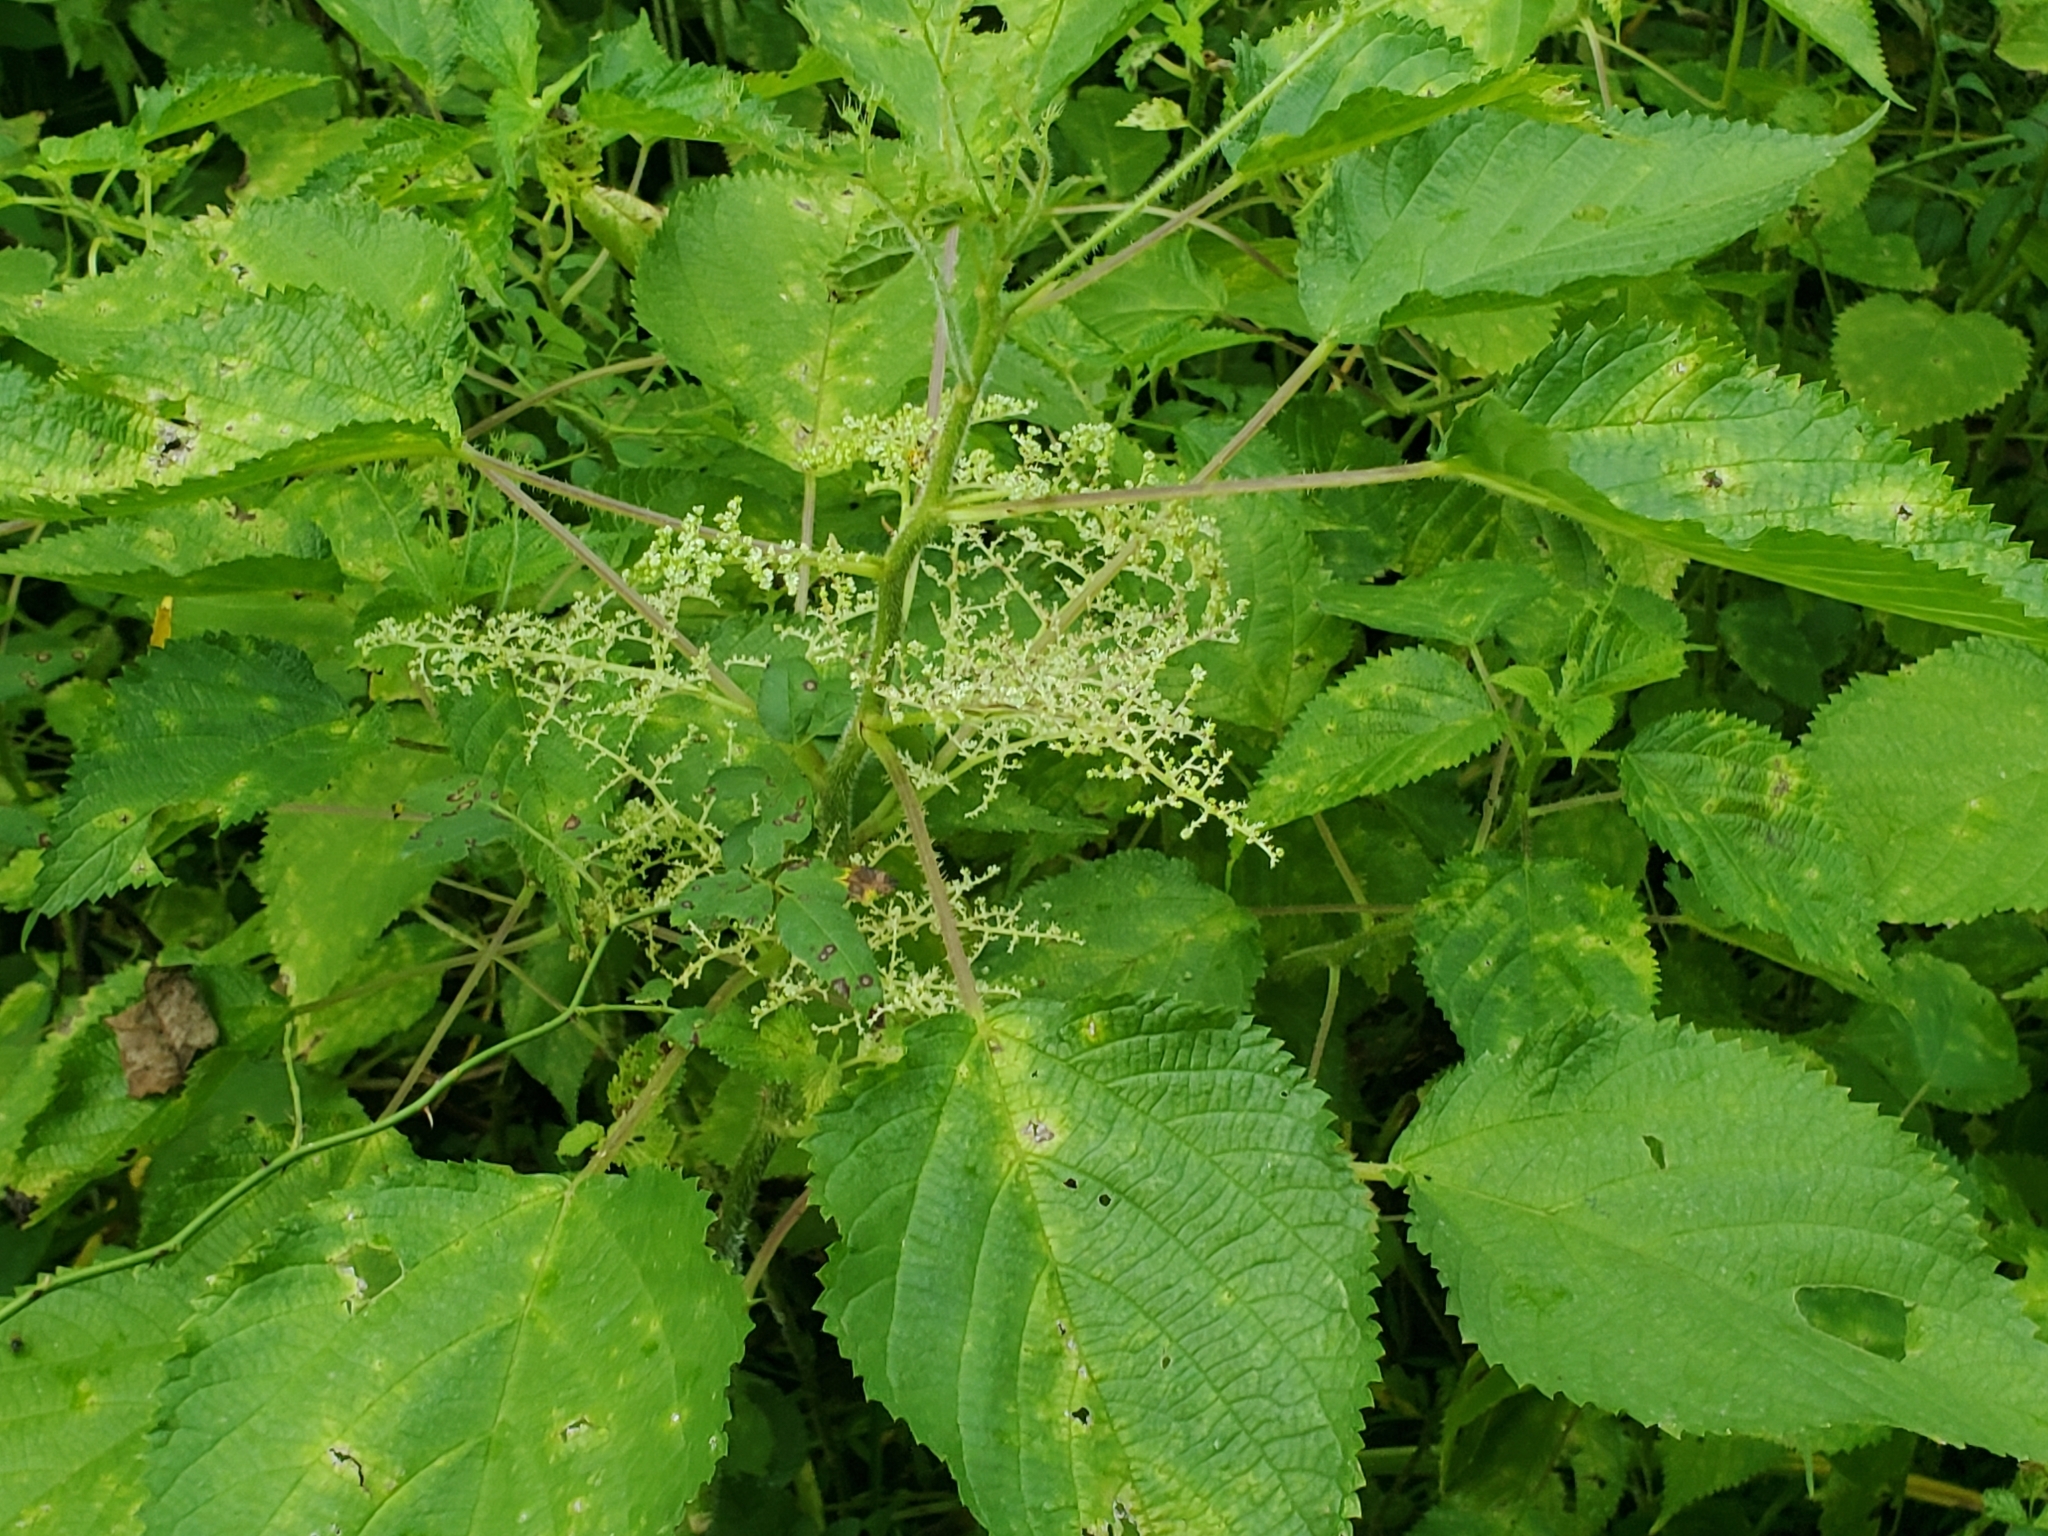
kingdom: Plantae
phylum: Tracheophyta
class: Magnoliopsida
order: Rosales
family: Urticaceae
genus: Laportea
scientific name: Laportea canadensis
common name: Canada nettle
